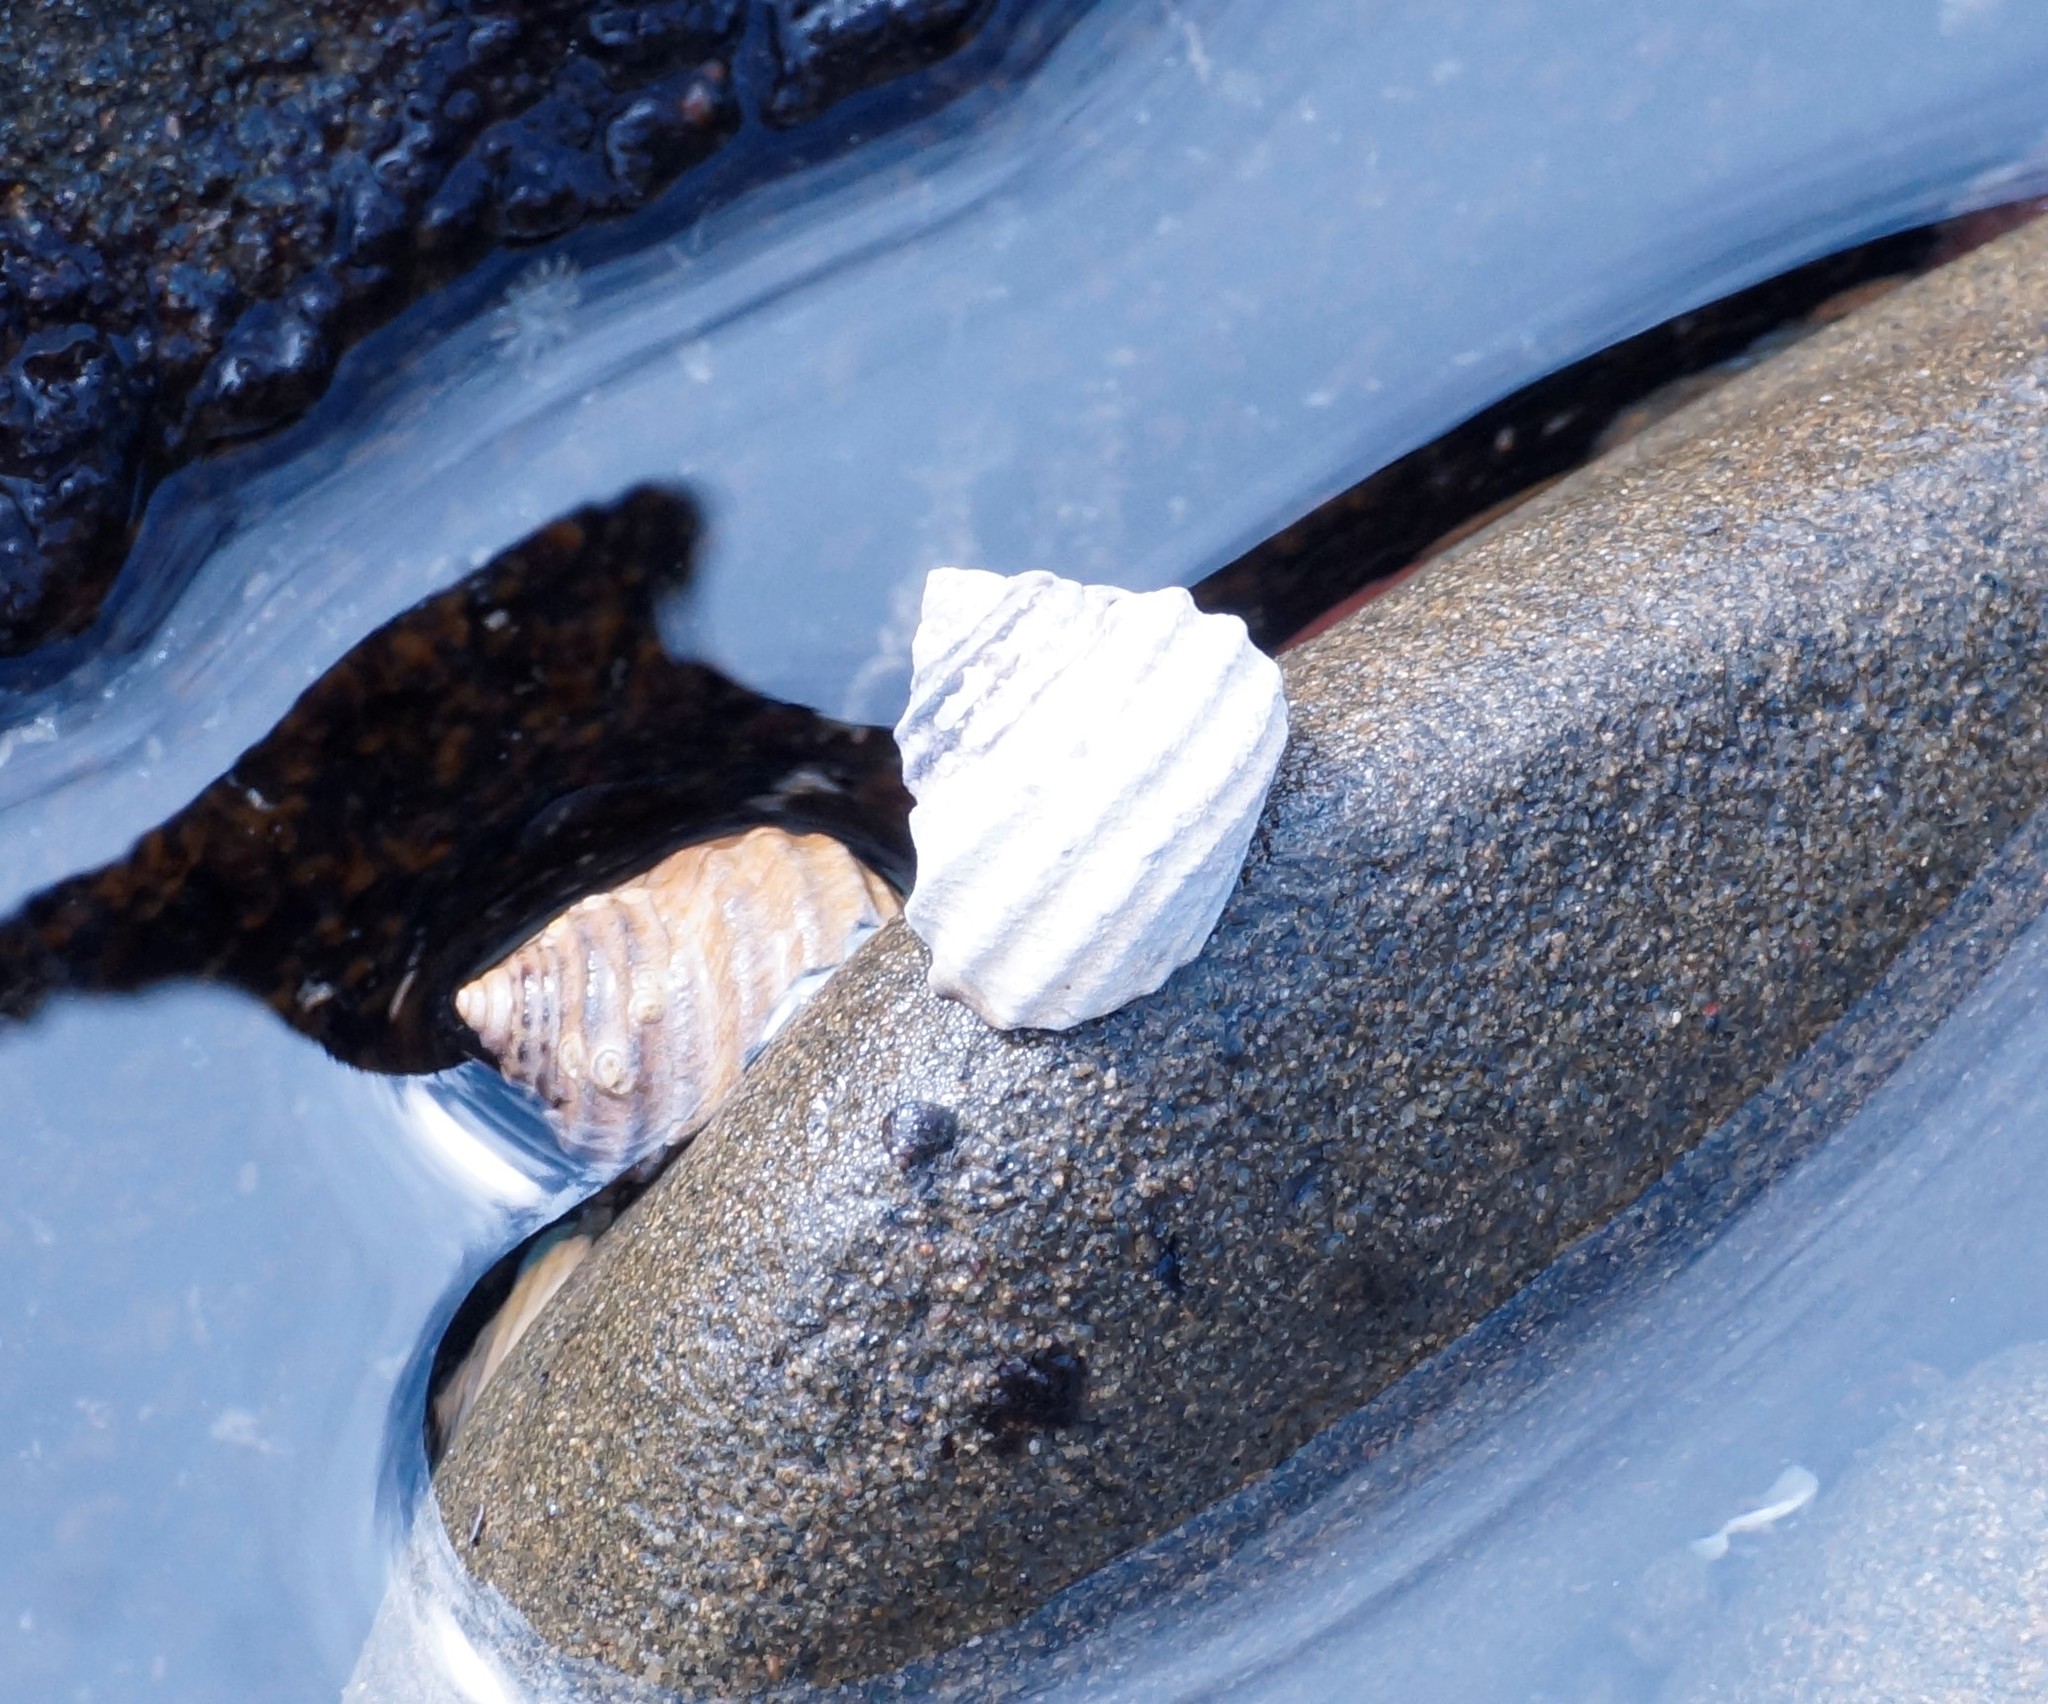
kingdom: Animalia
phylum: Mollusca
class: Gastropoda
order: Trochida
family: Trochidae
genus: Austrocochlea
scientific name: Austrocochlea constricta
